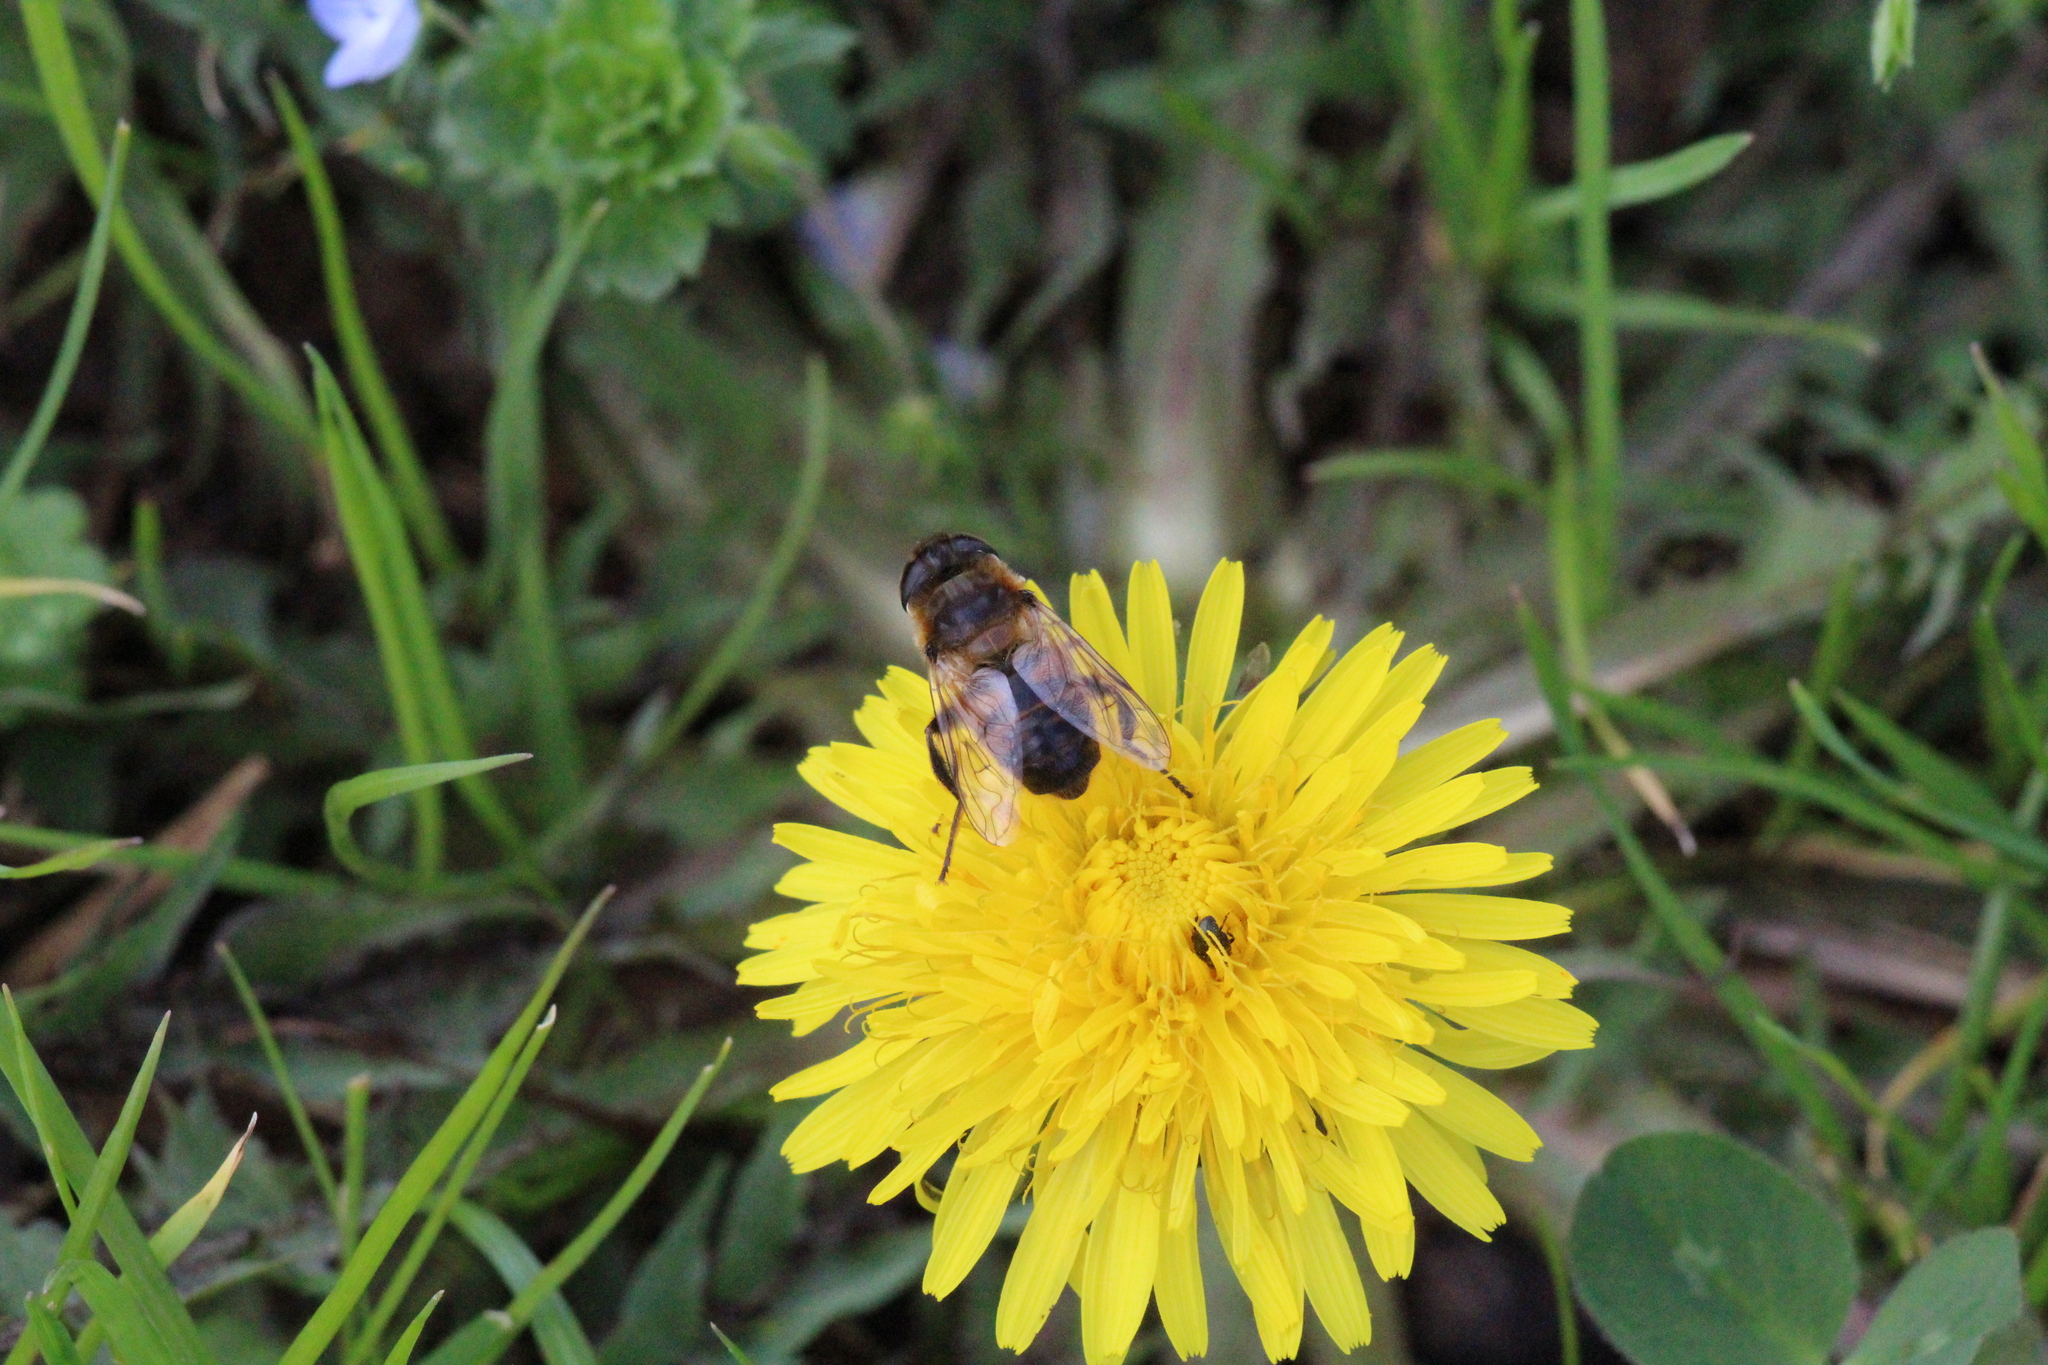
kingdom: Animalia
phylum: Arthropoda
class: Insecta
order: Diptera
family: Syrphidae
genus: Eristalis
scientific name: Eristalis tenax
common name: Drone fly
